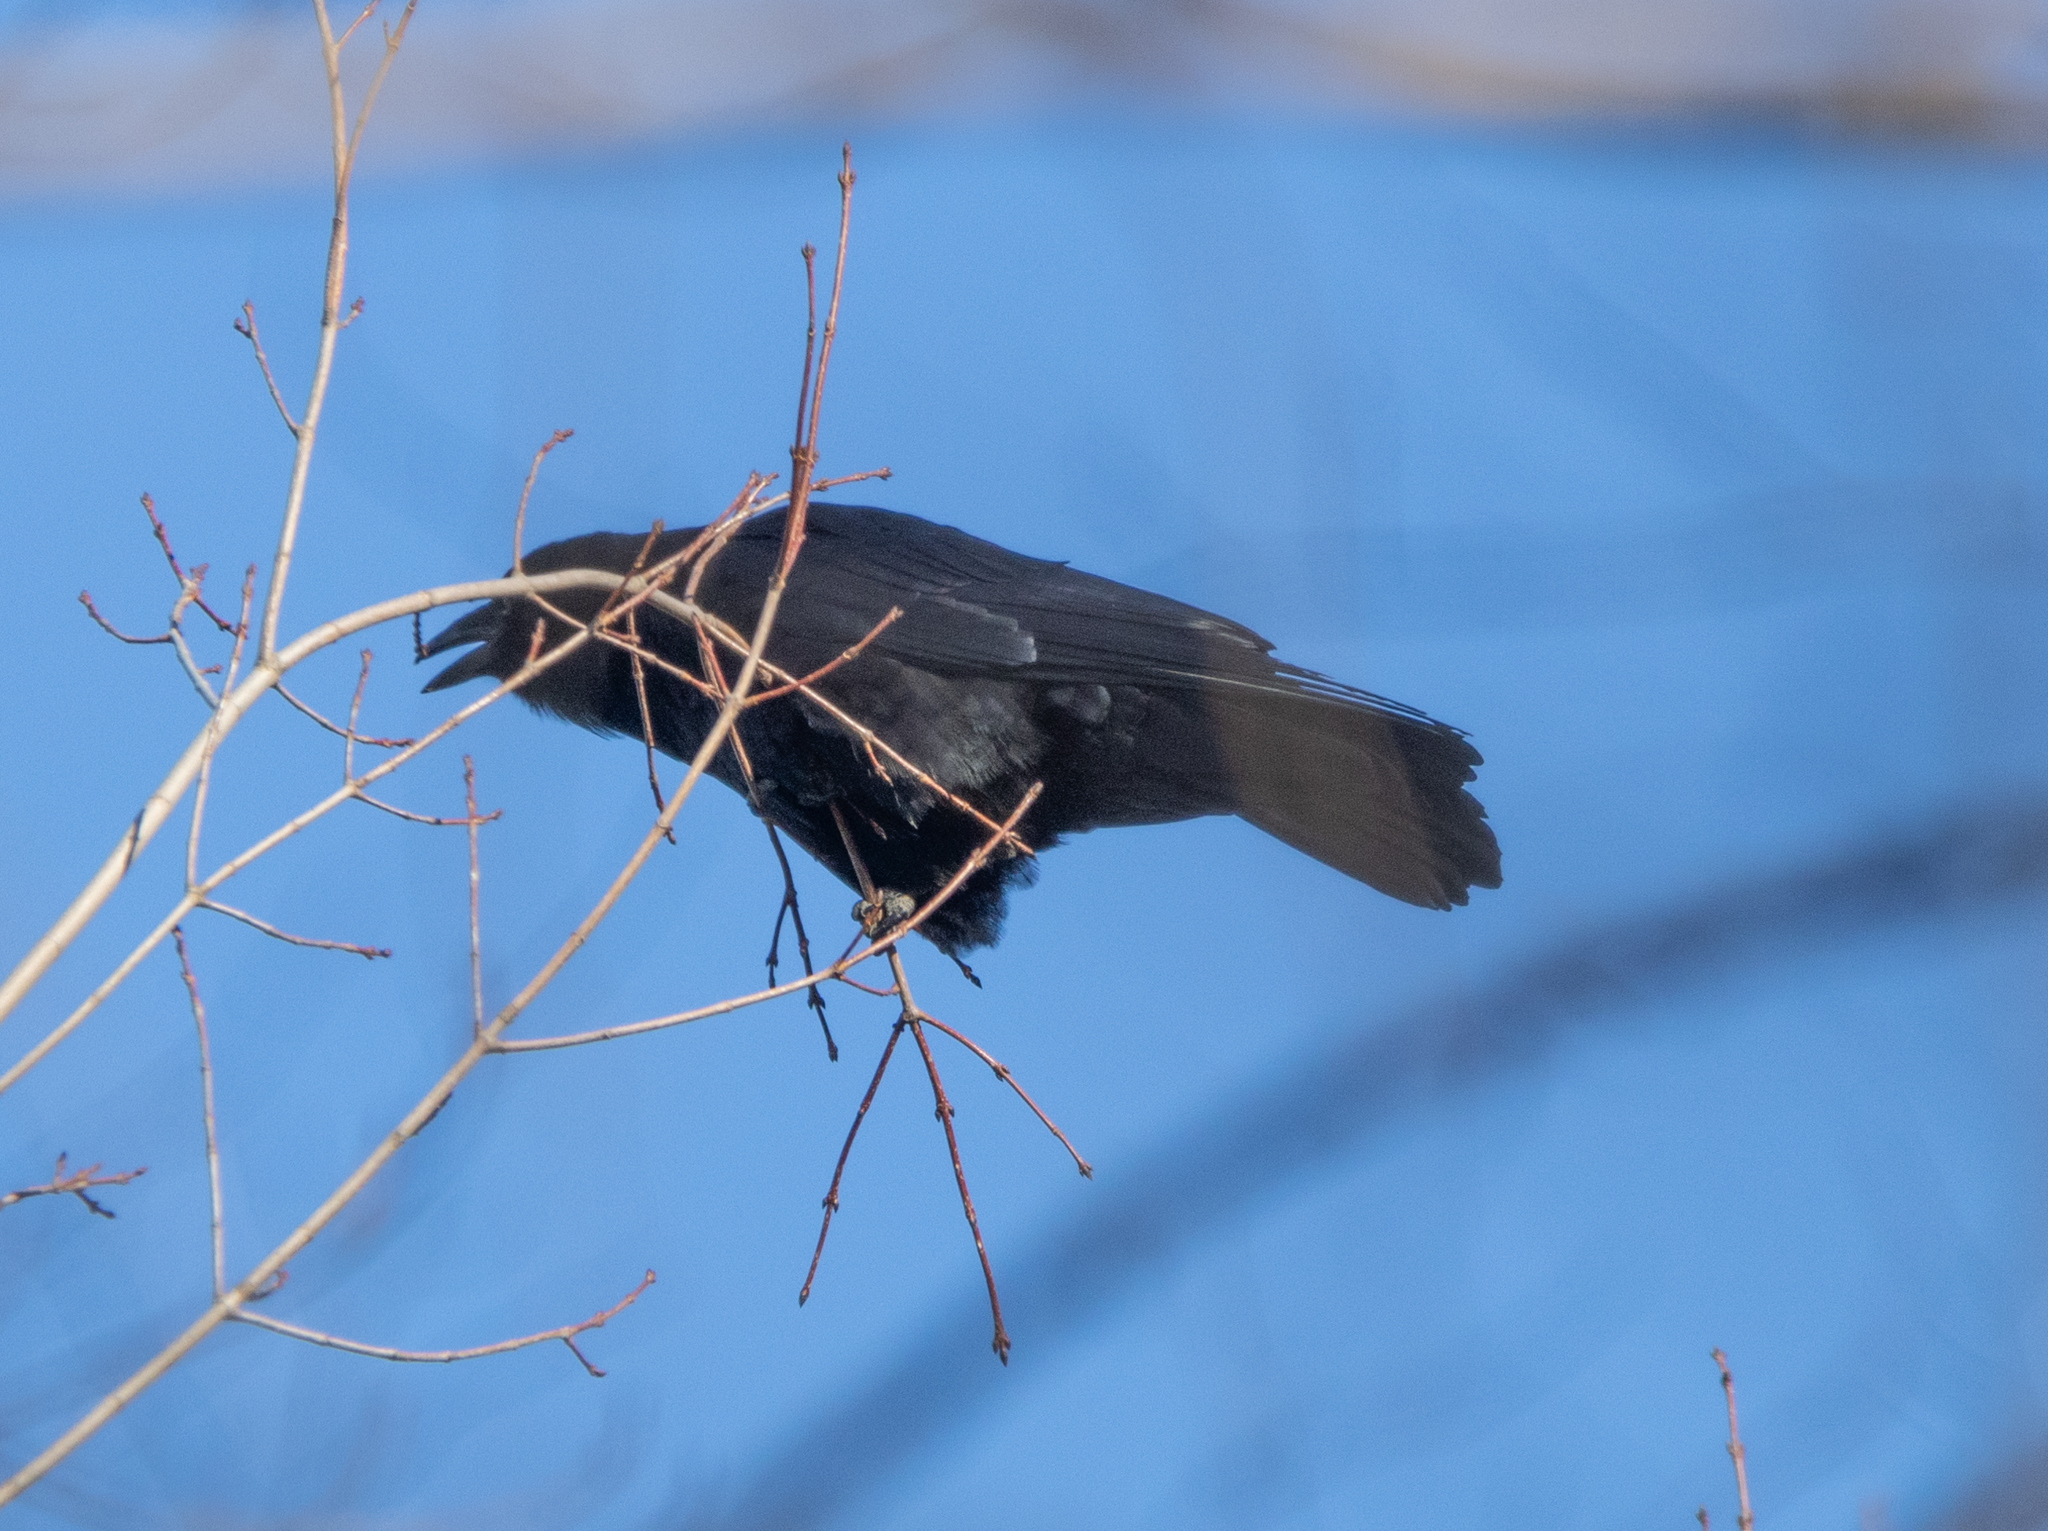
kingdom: Animalia
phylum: Chordata
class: Aves
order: Passeriformes
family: Corvidae
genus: Corvus
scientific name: Corvus brachyrhynchos
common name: American crow
